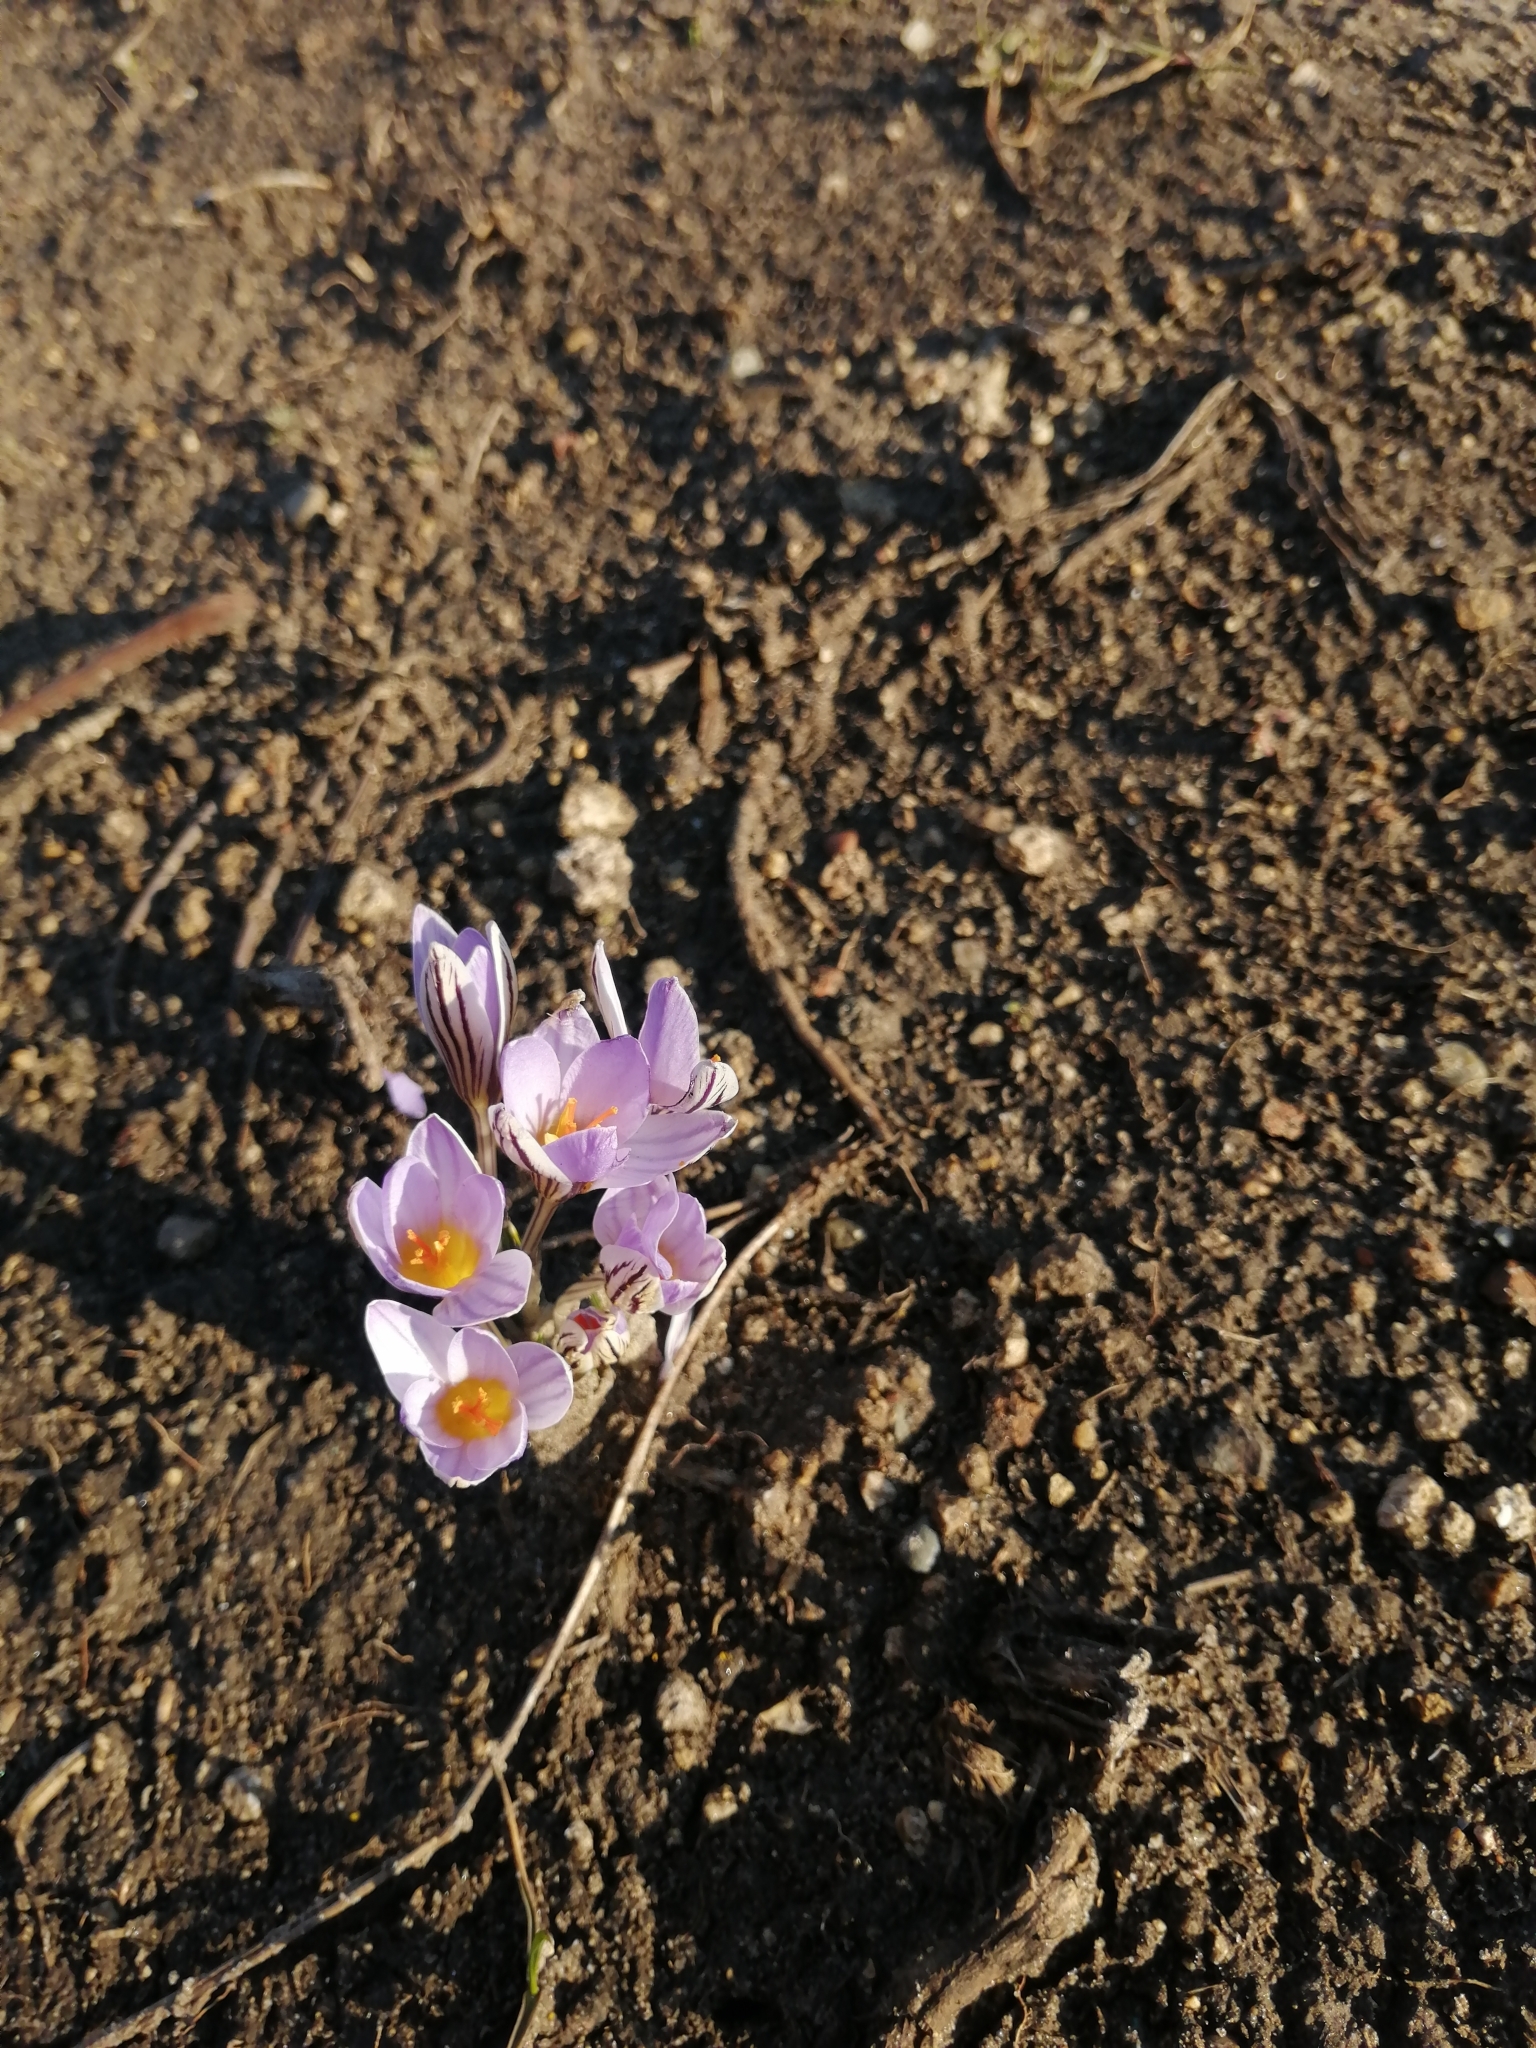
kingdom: Plantae
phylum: Tracheophyta
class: Liliopsida
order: Asparagales
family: Iridaceae
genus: Crocus
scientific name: Crocus reticulatus
